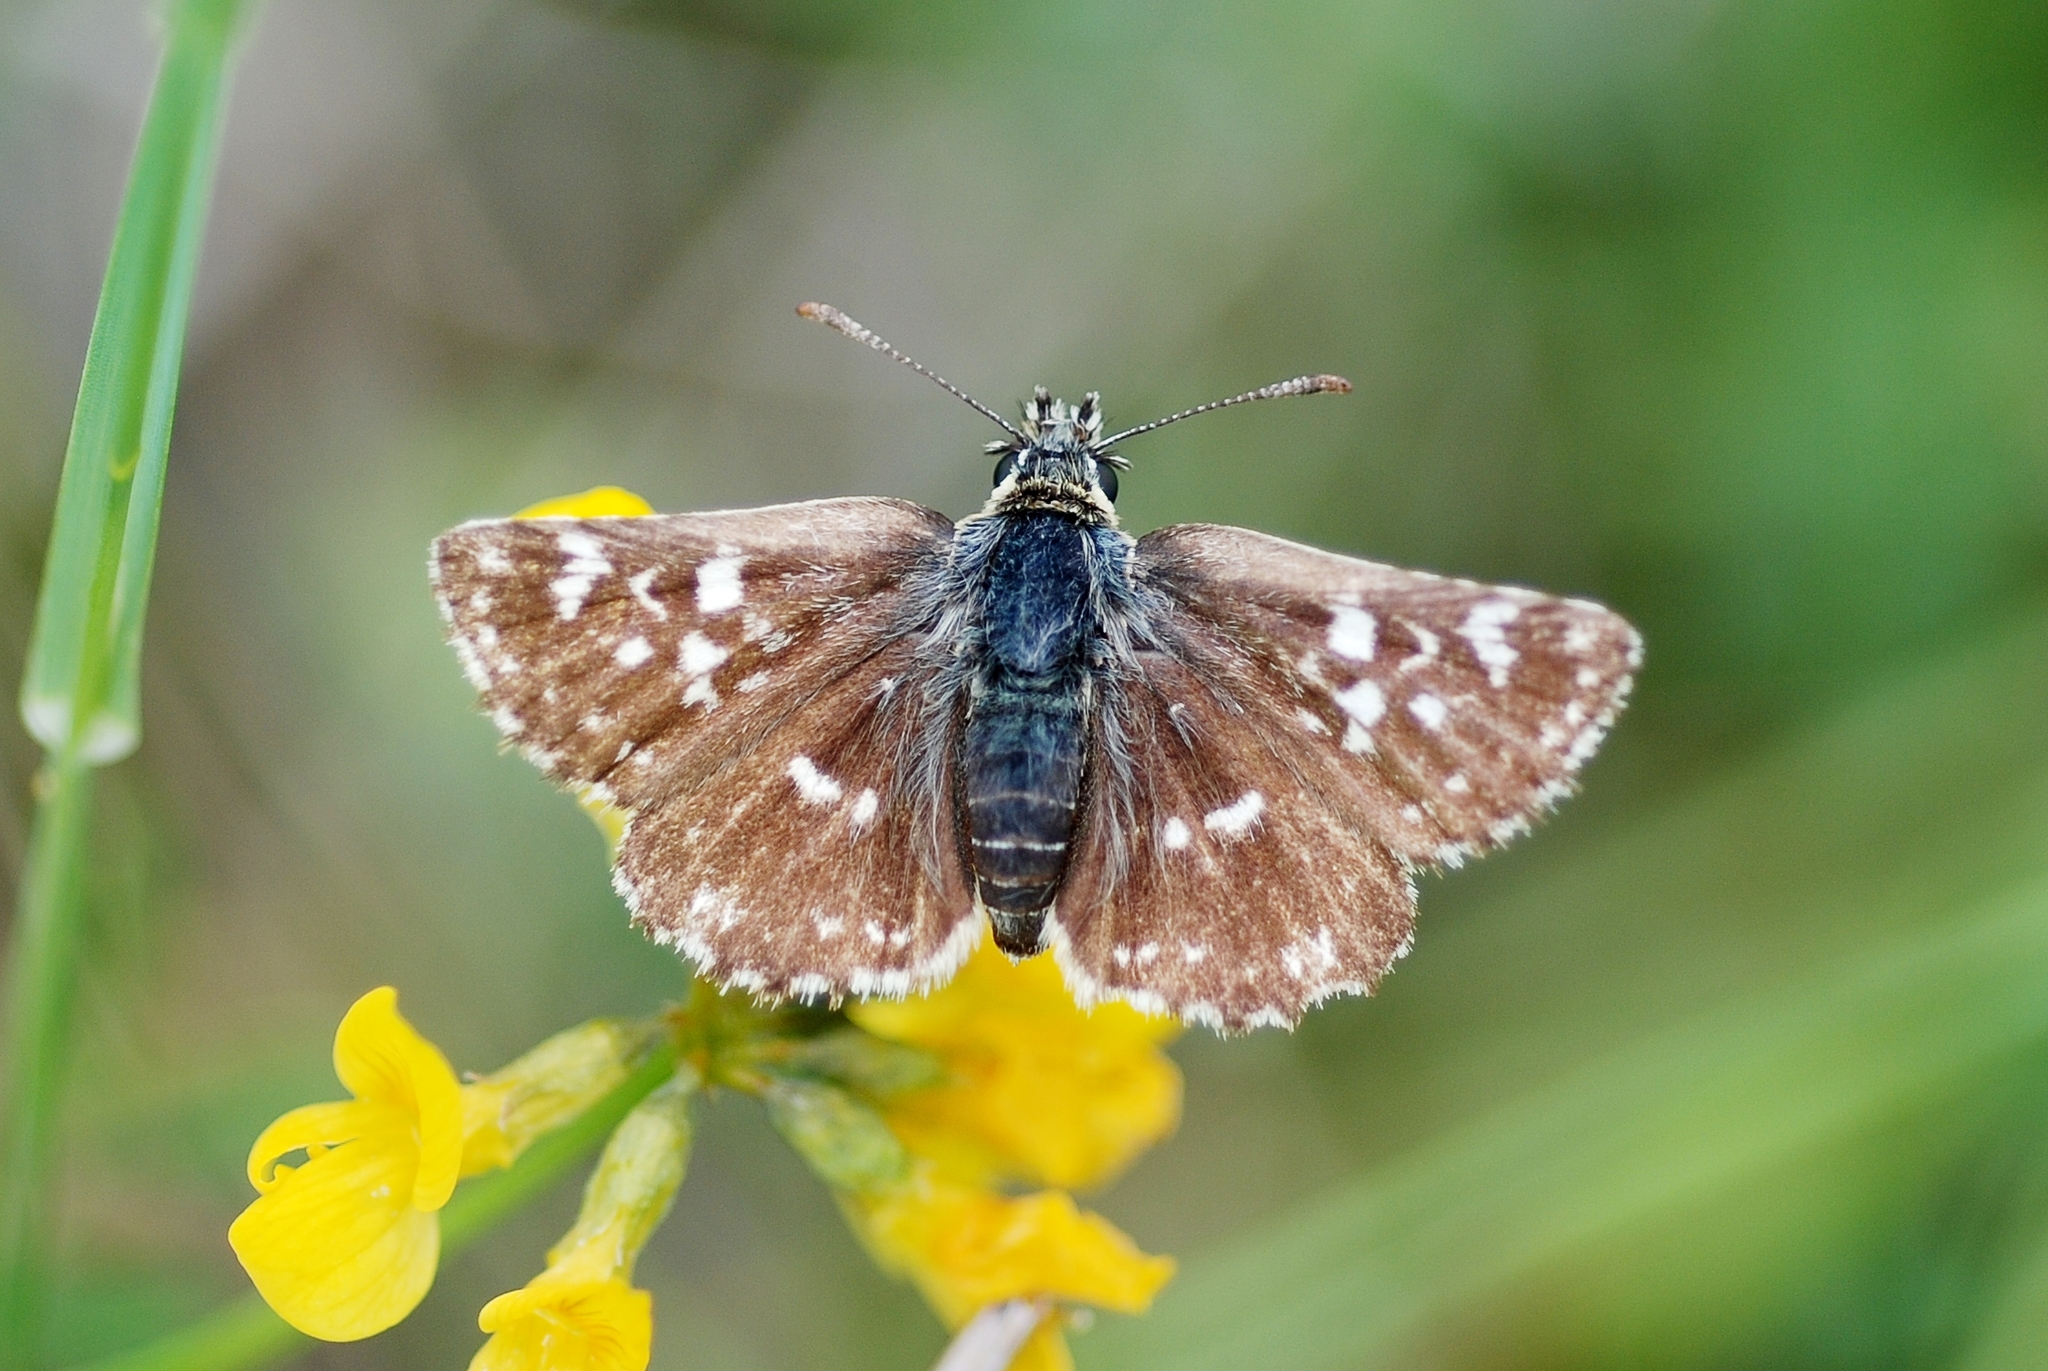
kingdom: Animalia
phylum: Arthropoda
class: Insecta
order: Lepidoptera
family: Hesperiidae
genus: Spialia
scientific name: Spialia sertorius
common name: Red underwing skipper
